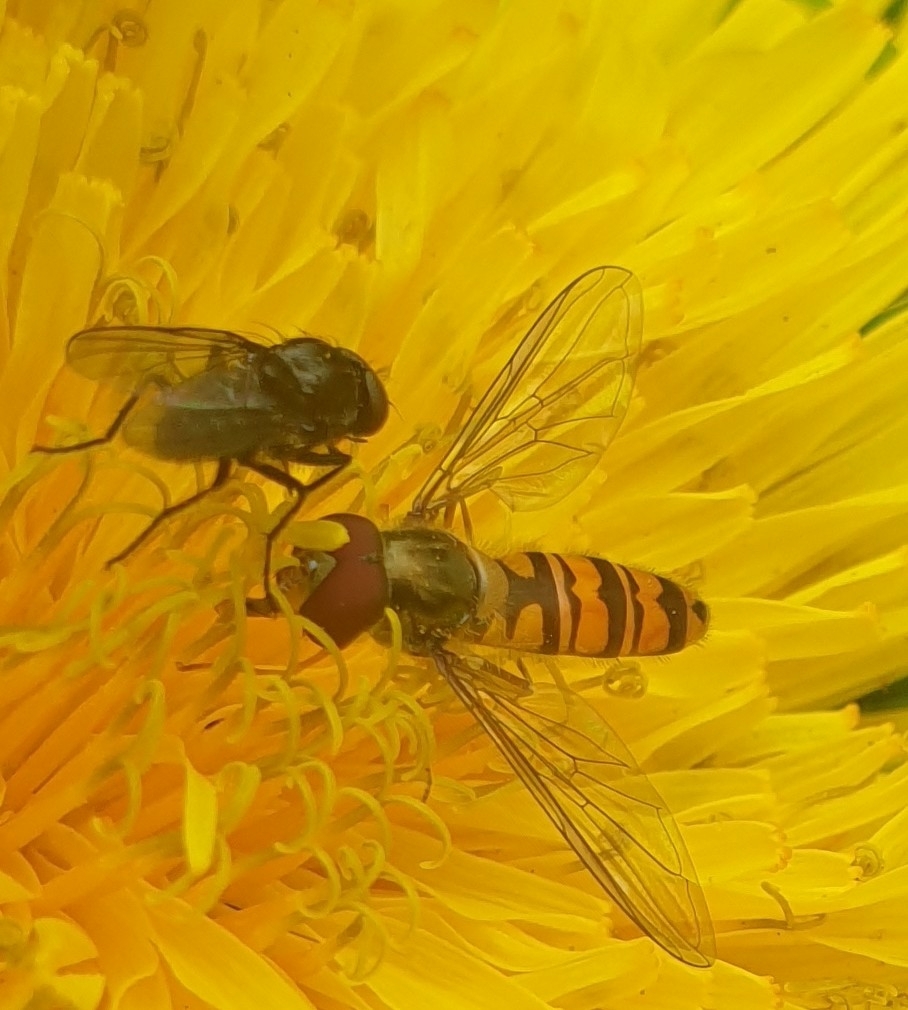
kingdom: Animalia
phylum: Arthropoda
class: Insecta
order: Diptera
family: Syrphidae
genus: Episyrphus
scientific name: Episyrphus balteatus
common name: Marmalade hoverfly
